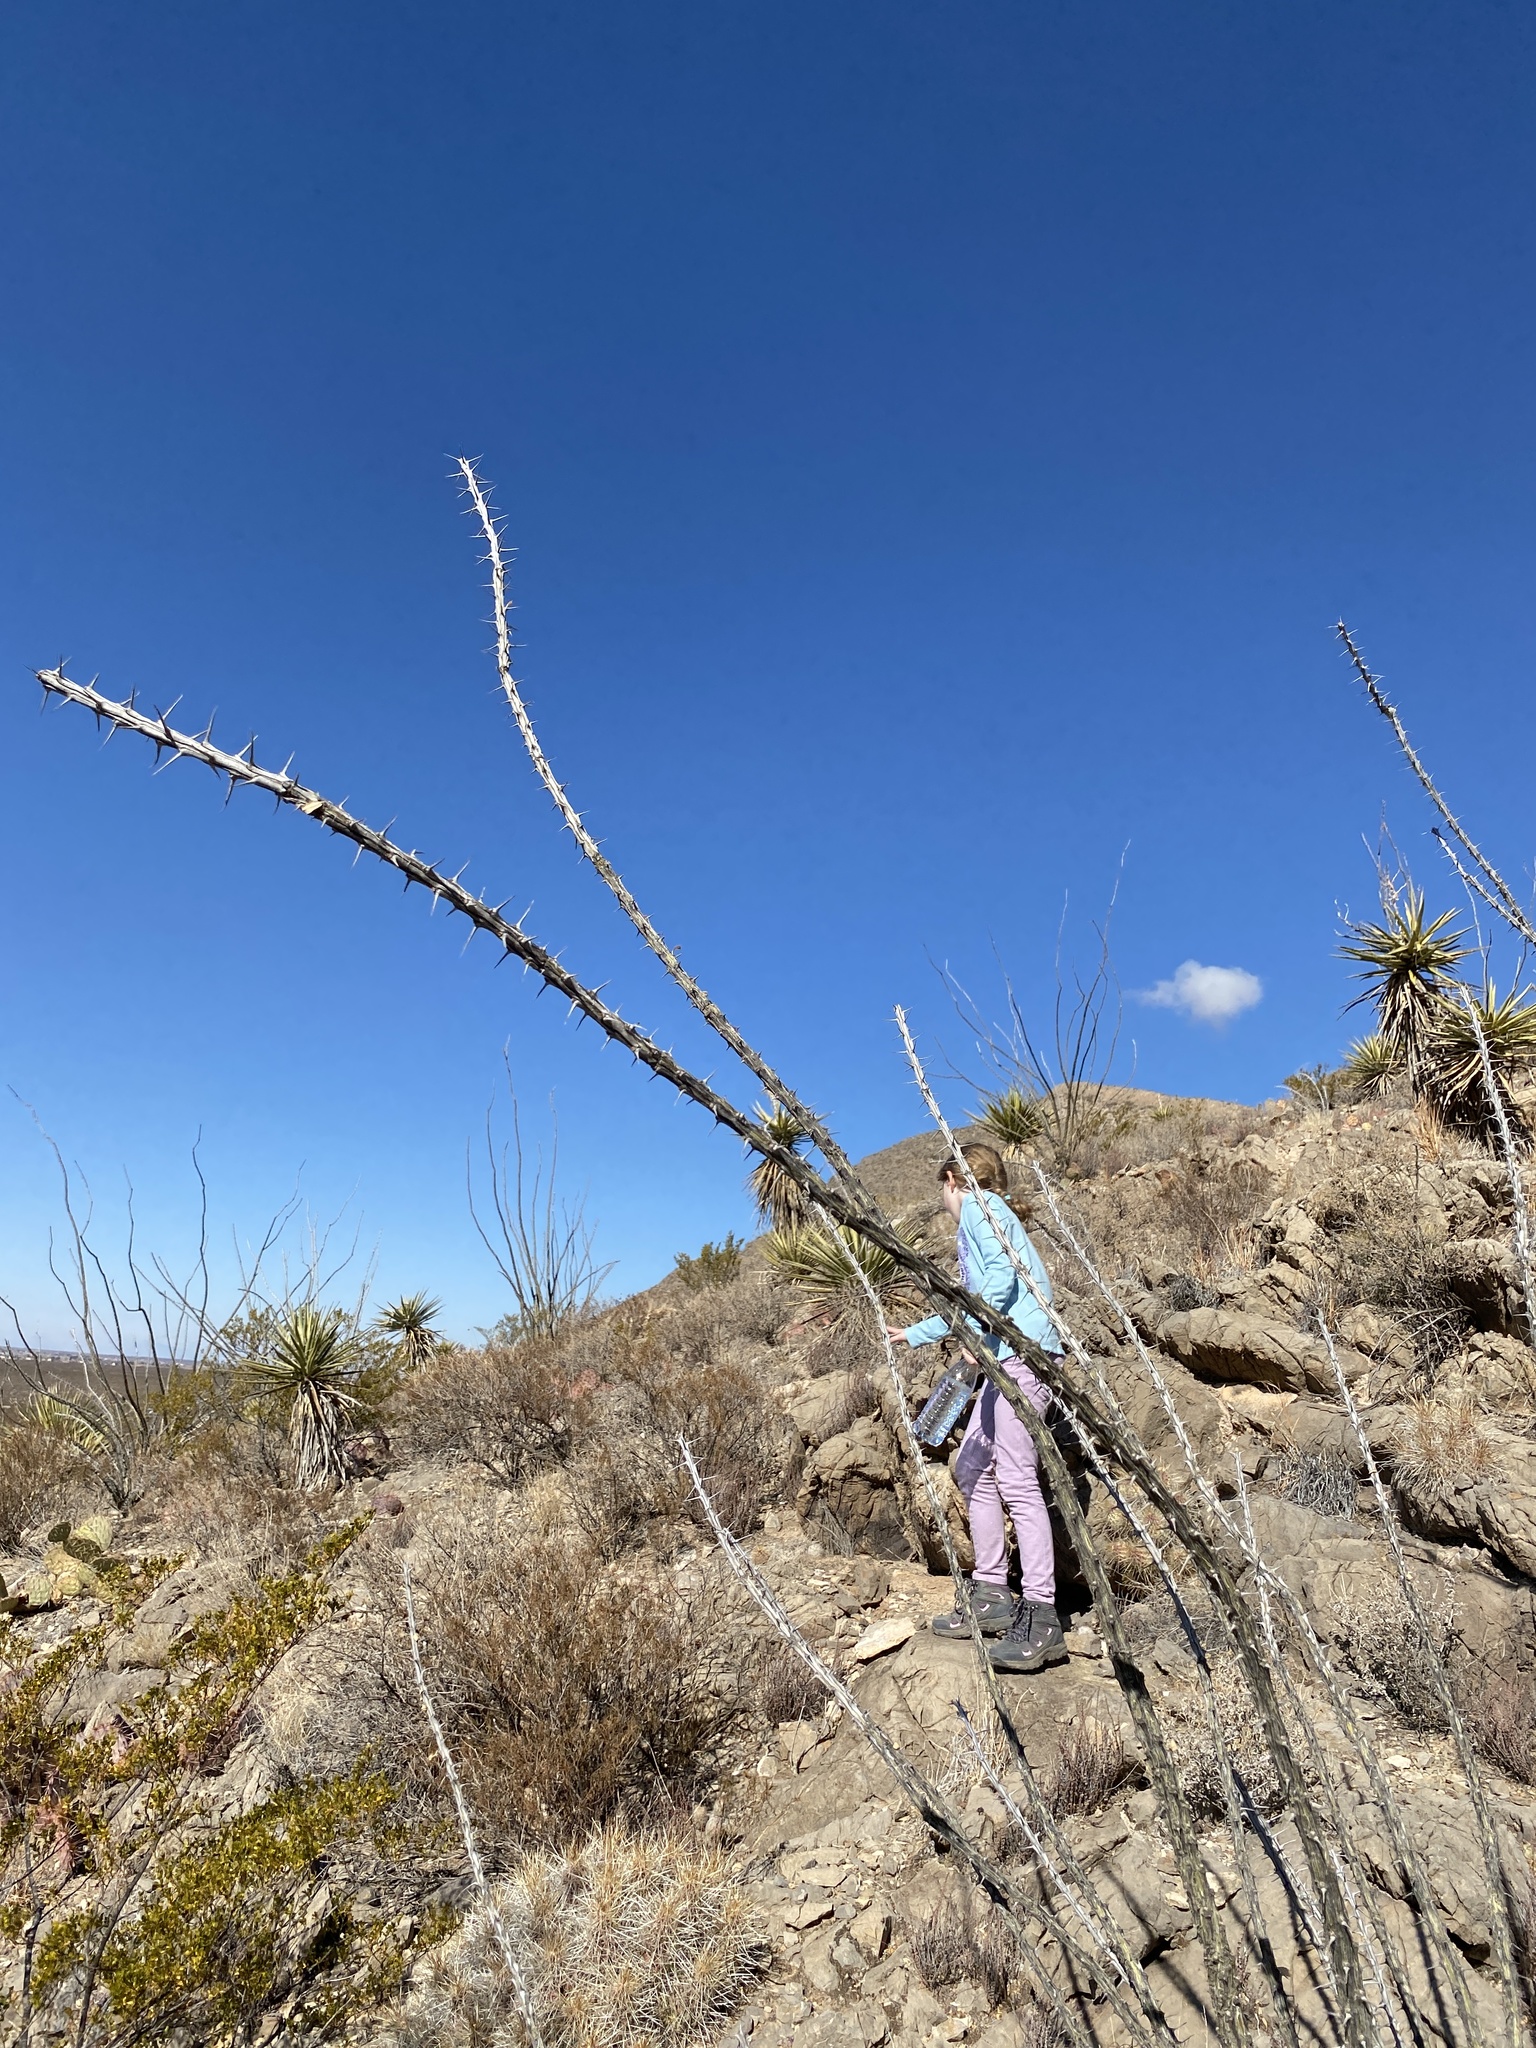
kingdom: Plantae
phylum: Tracheophyta
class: Magnoliopsida
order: Ericales
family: Fouquieriaceae
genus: Fouquieria
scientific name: Fouquieria splendens
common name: Vine-cactus
